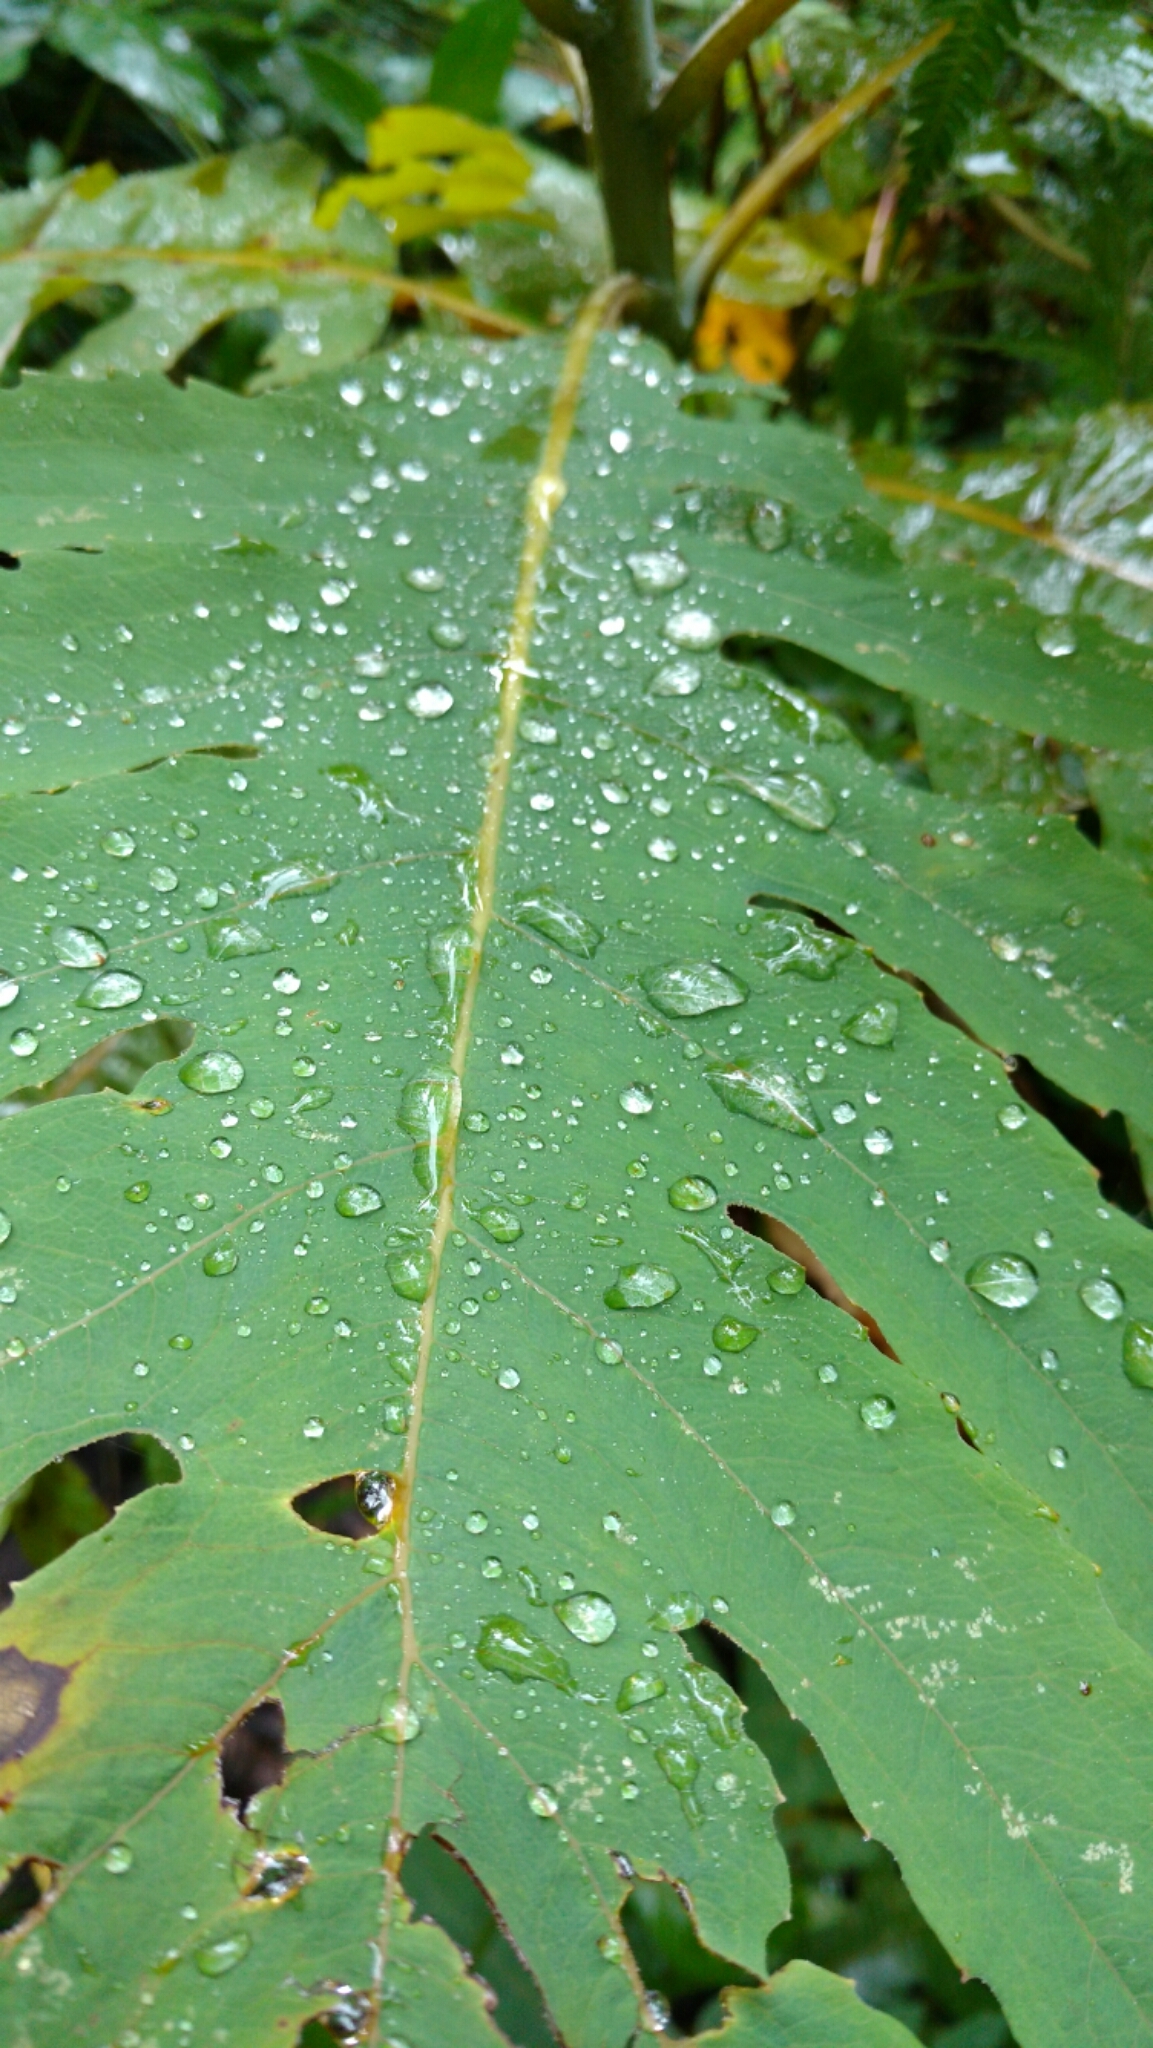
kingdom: Plantae
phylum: Tracheophyta
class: Magnoliopsida
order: Ranunculales
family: Papaveraceae
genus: Bocconia
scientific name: Bocconia frutescens
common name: Tree poppy
